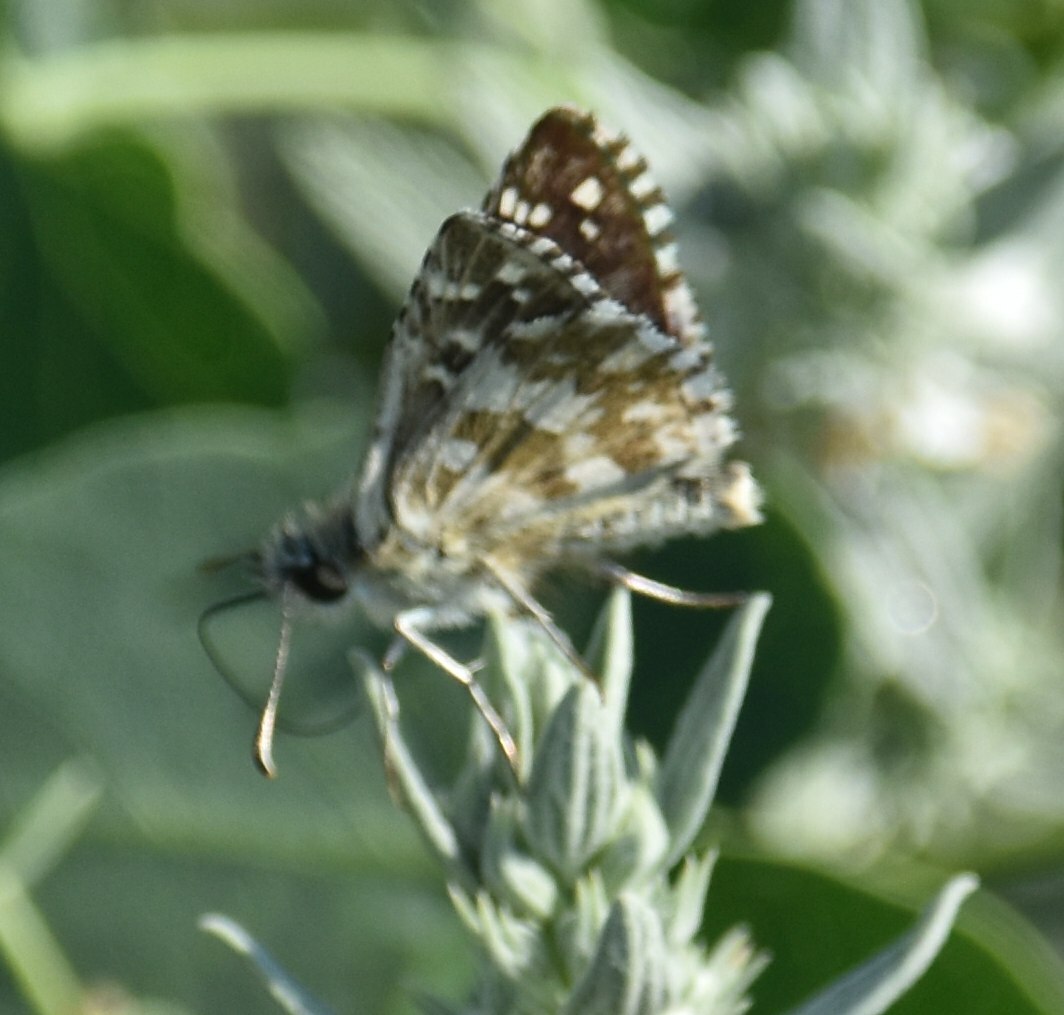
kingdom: Animalia
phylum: Arthropoda
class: Insecta
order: Lepidoptera
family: Hesperiidae
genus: Pyrgus
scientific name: Pyrgus armoricanus
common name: Oberthür's grizzled skipper
